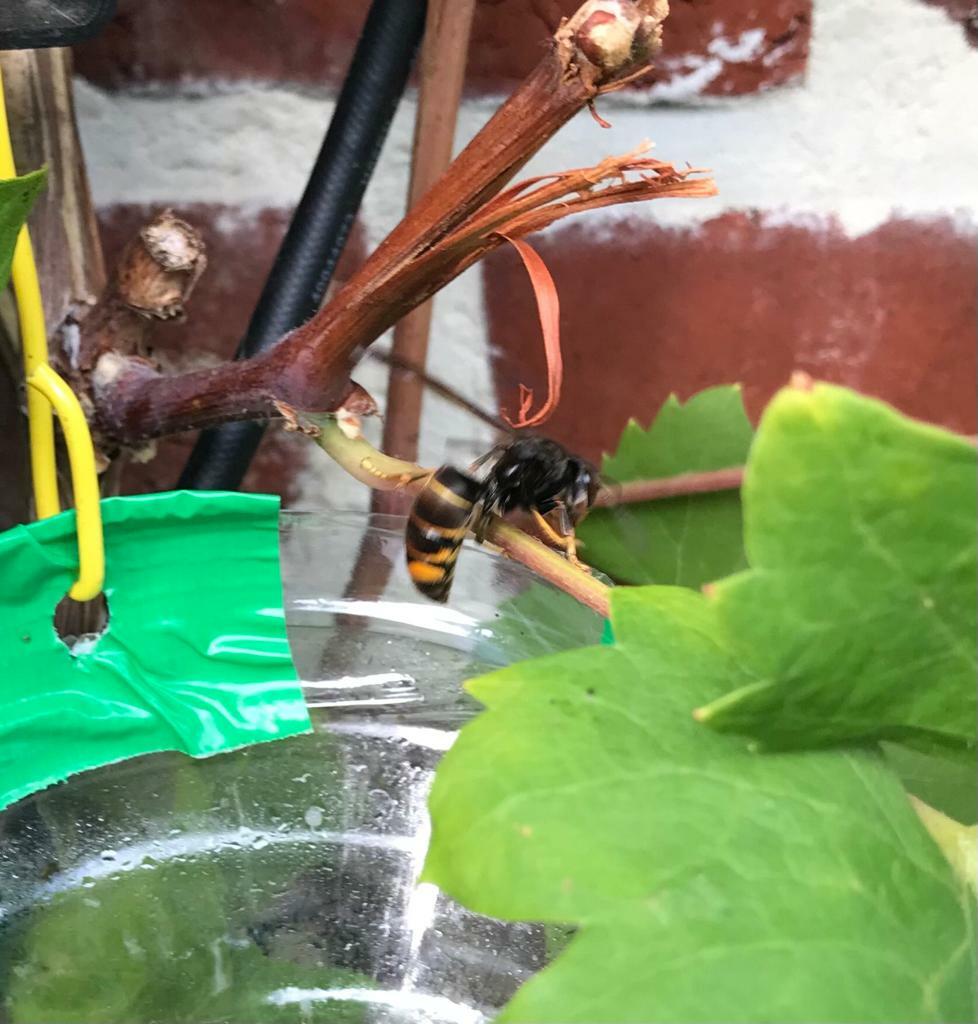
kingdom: Animalia
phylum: Arthropoda
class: Insecta
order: Hymenoptera
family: Vespidae
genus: Vespa
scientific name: Vespa velutina
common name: Asian hornet
